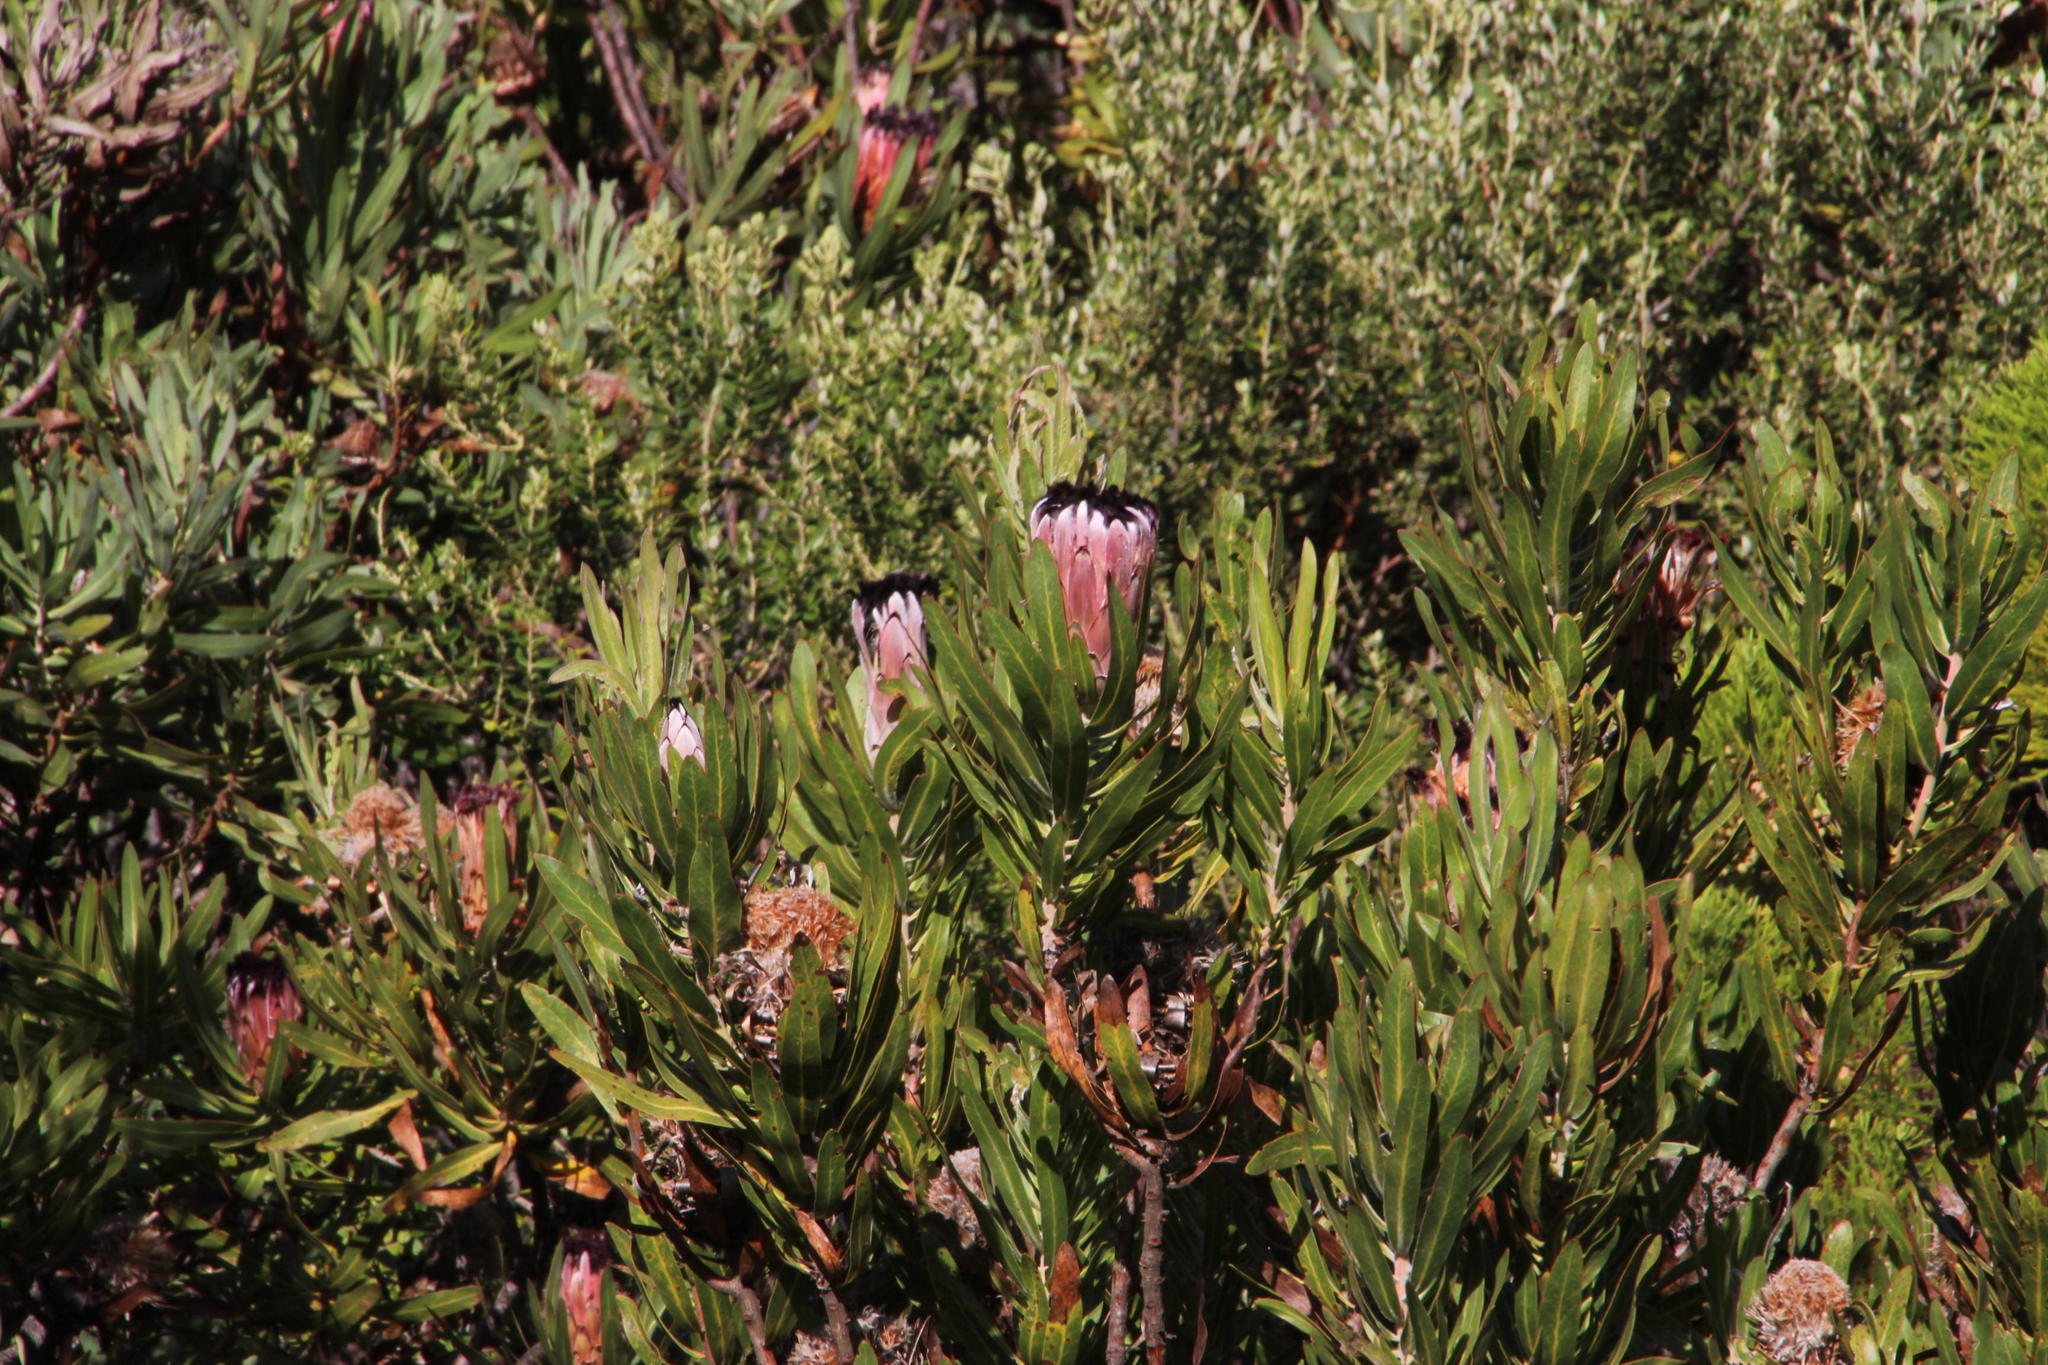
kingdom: Plantae
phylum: Tracheophyta
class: Magnoliopsida
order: Proteales
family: Proteaceae
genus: Protea
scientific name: Protea neriifolia
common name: Blue sugarbush
